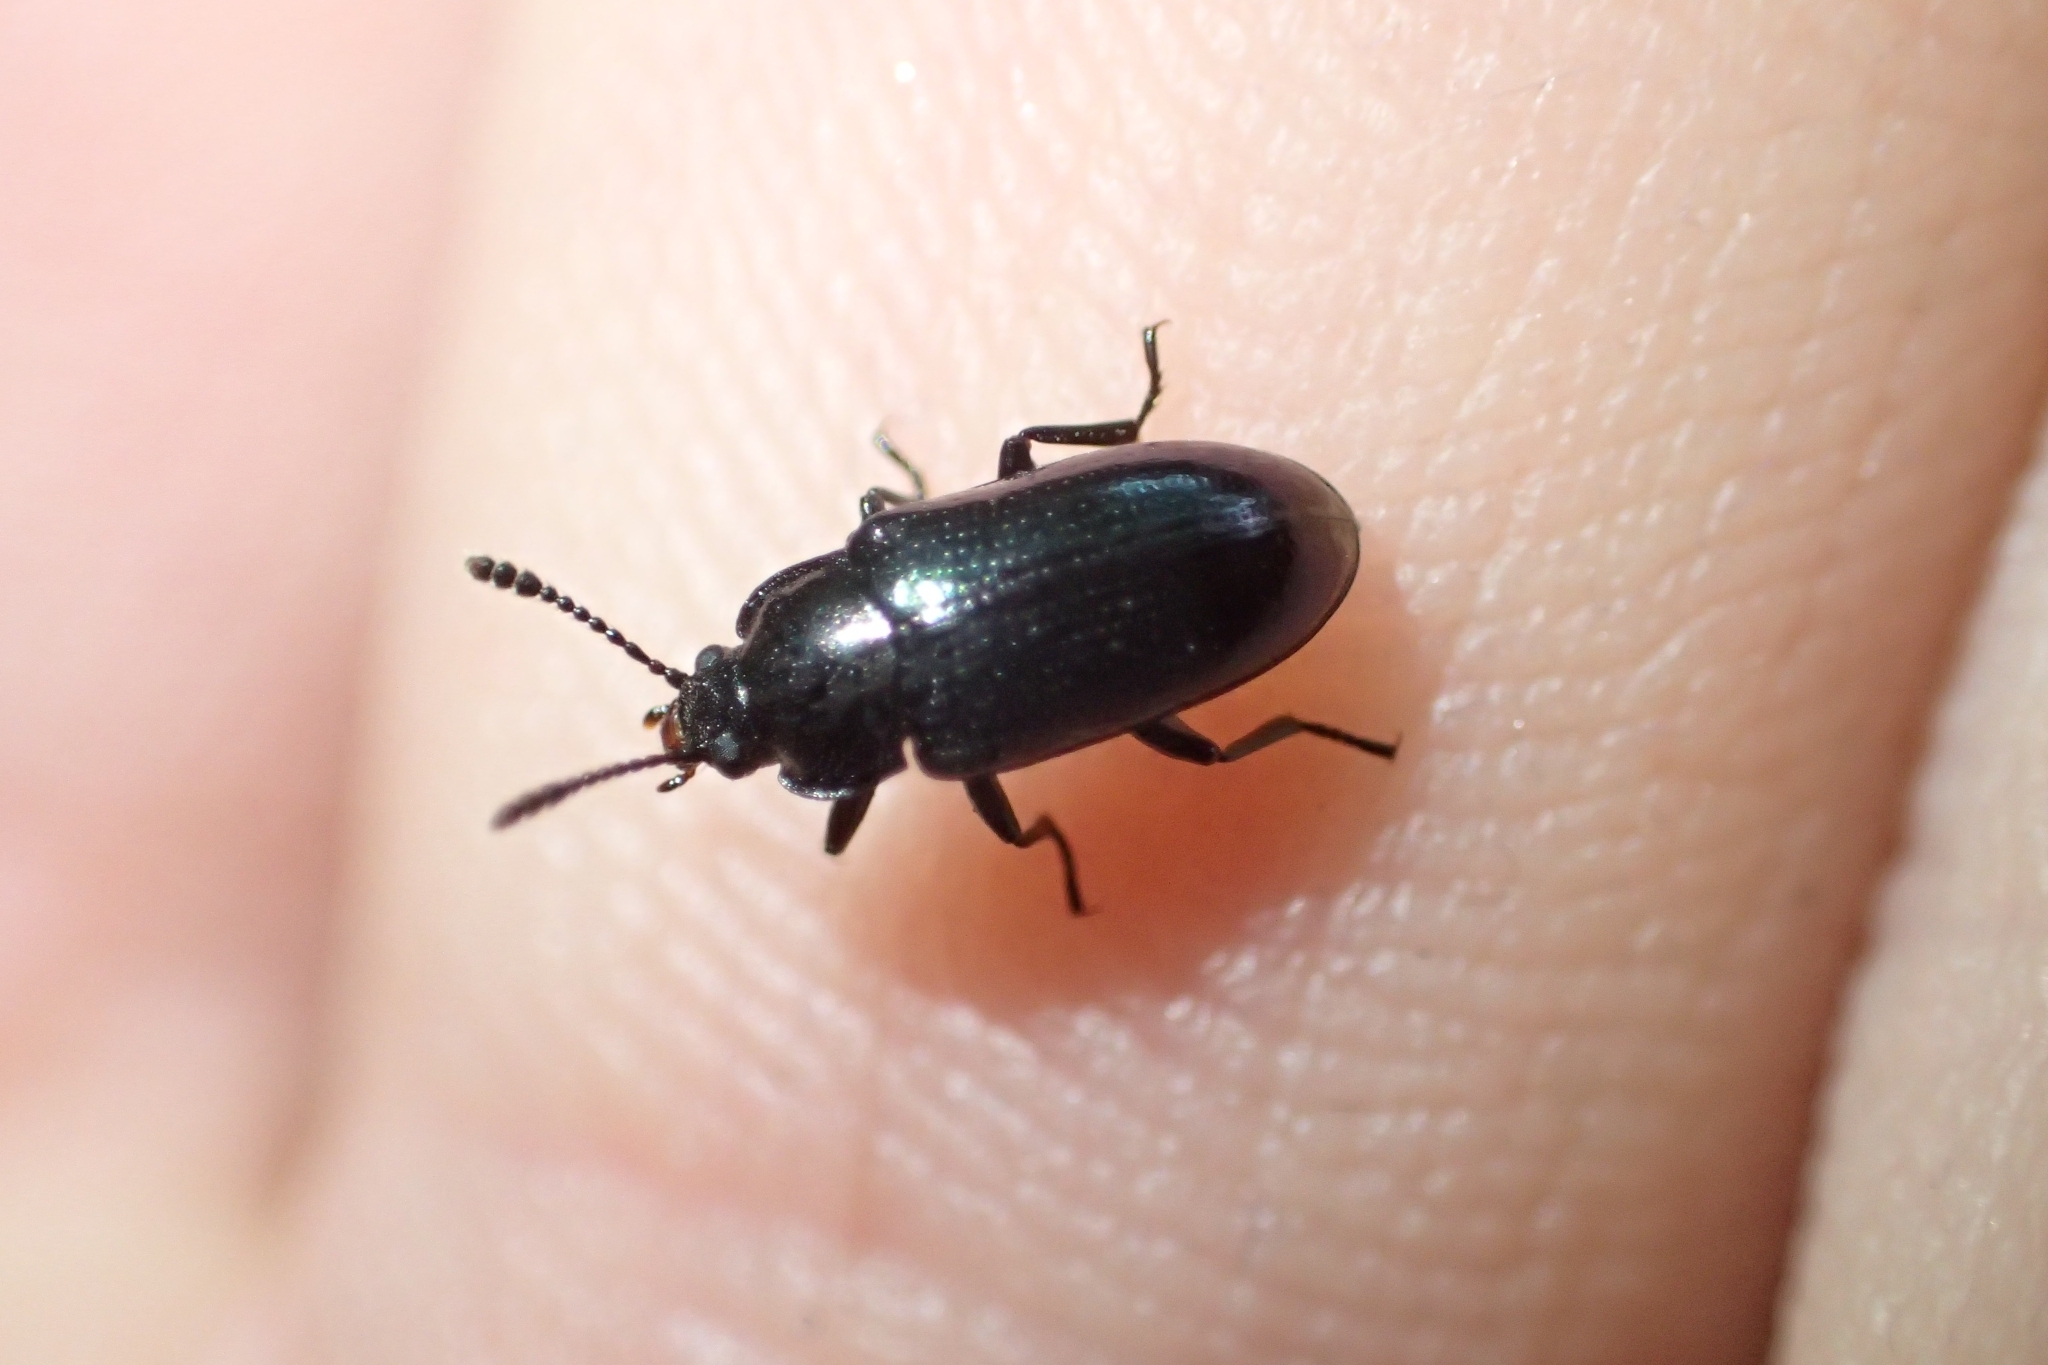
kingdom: Animalia
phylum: Arthropoda
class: Insecta
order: Coleoptera
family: Ulodidae
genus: Arthopus
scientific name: Arthopus brouni
